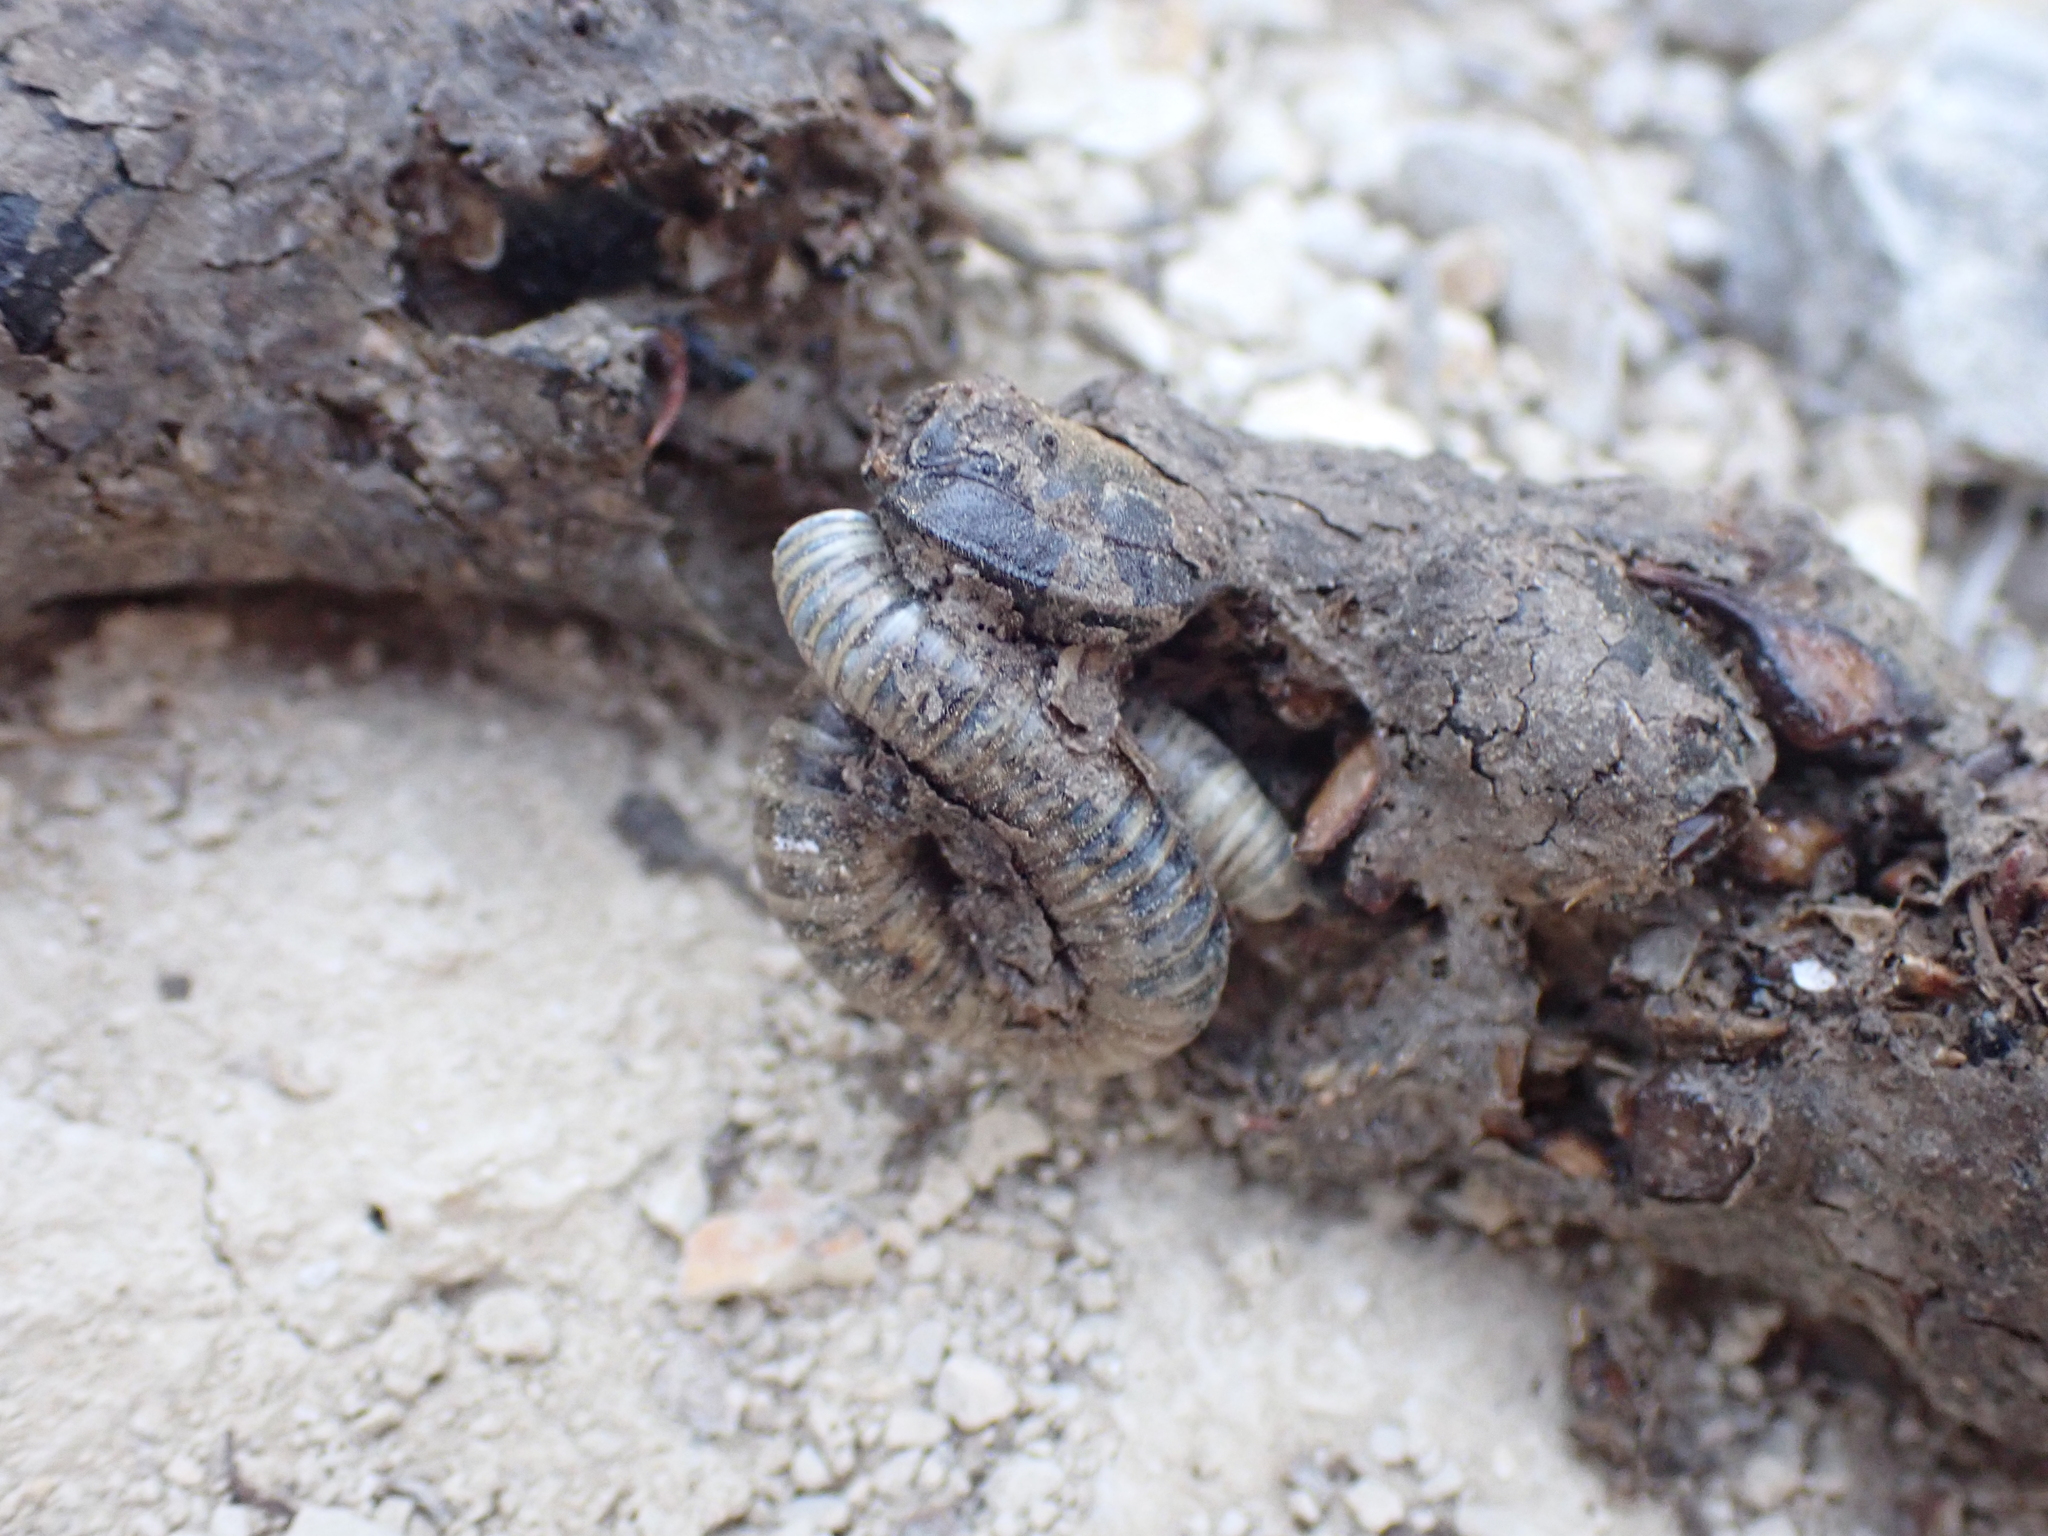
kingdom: Animalia
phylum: Chordata
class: Mammalia
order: Erinaceomorpha
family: Erinaceidae
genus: Erinaceus
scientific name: Erinaceus europaeus
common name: West european hedgehog
